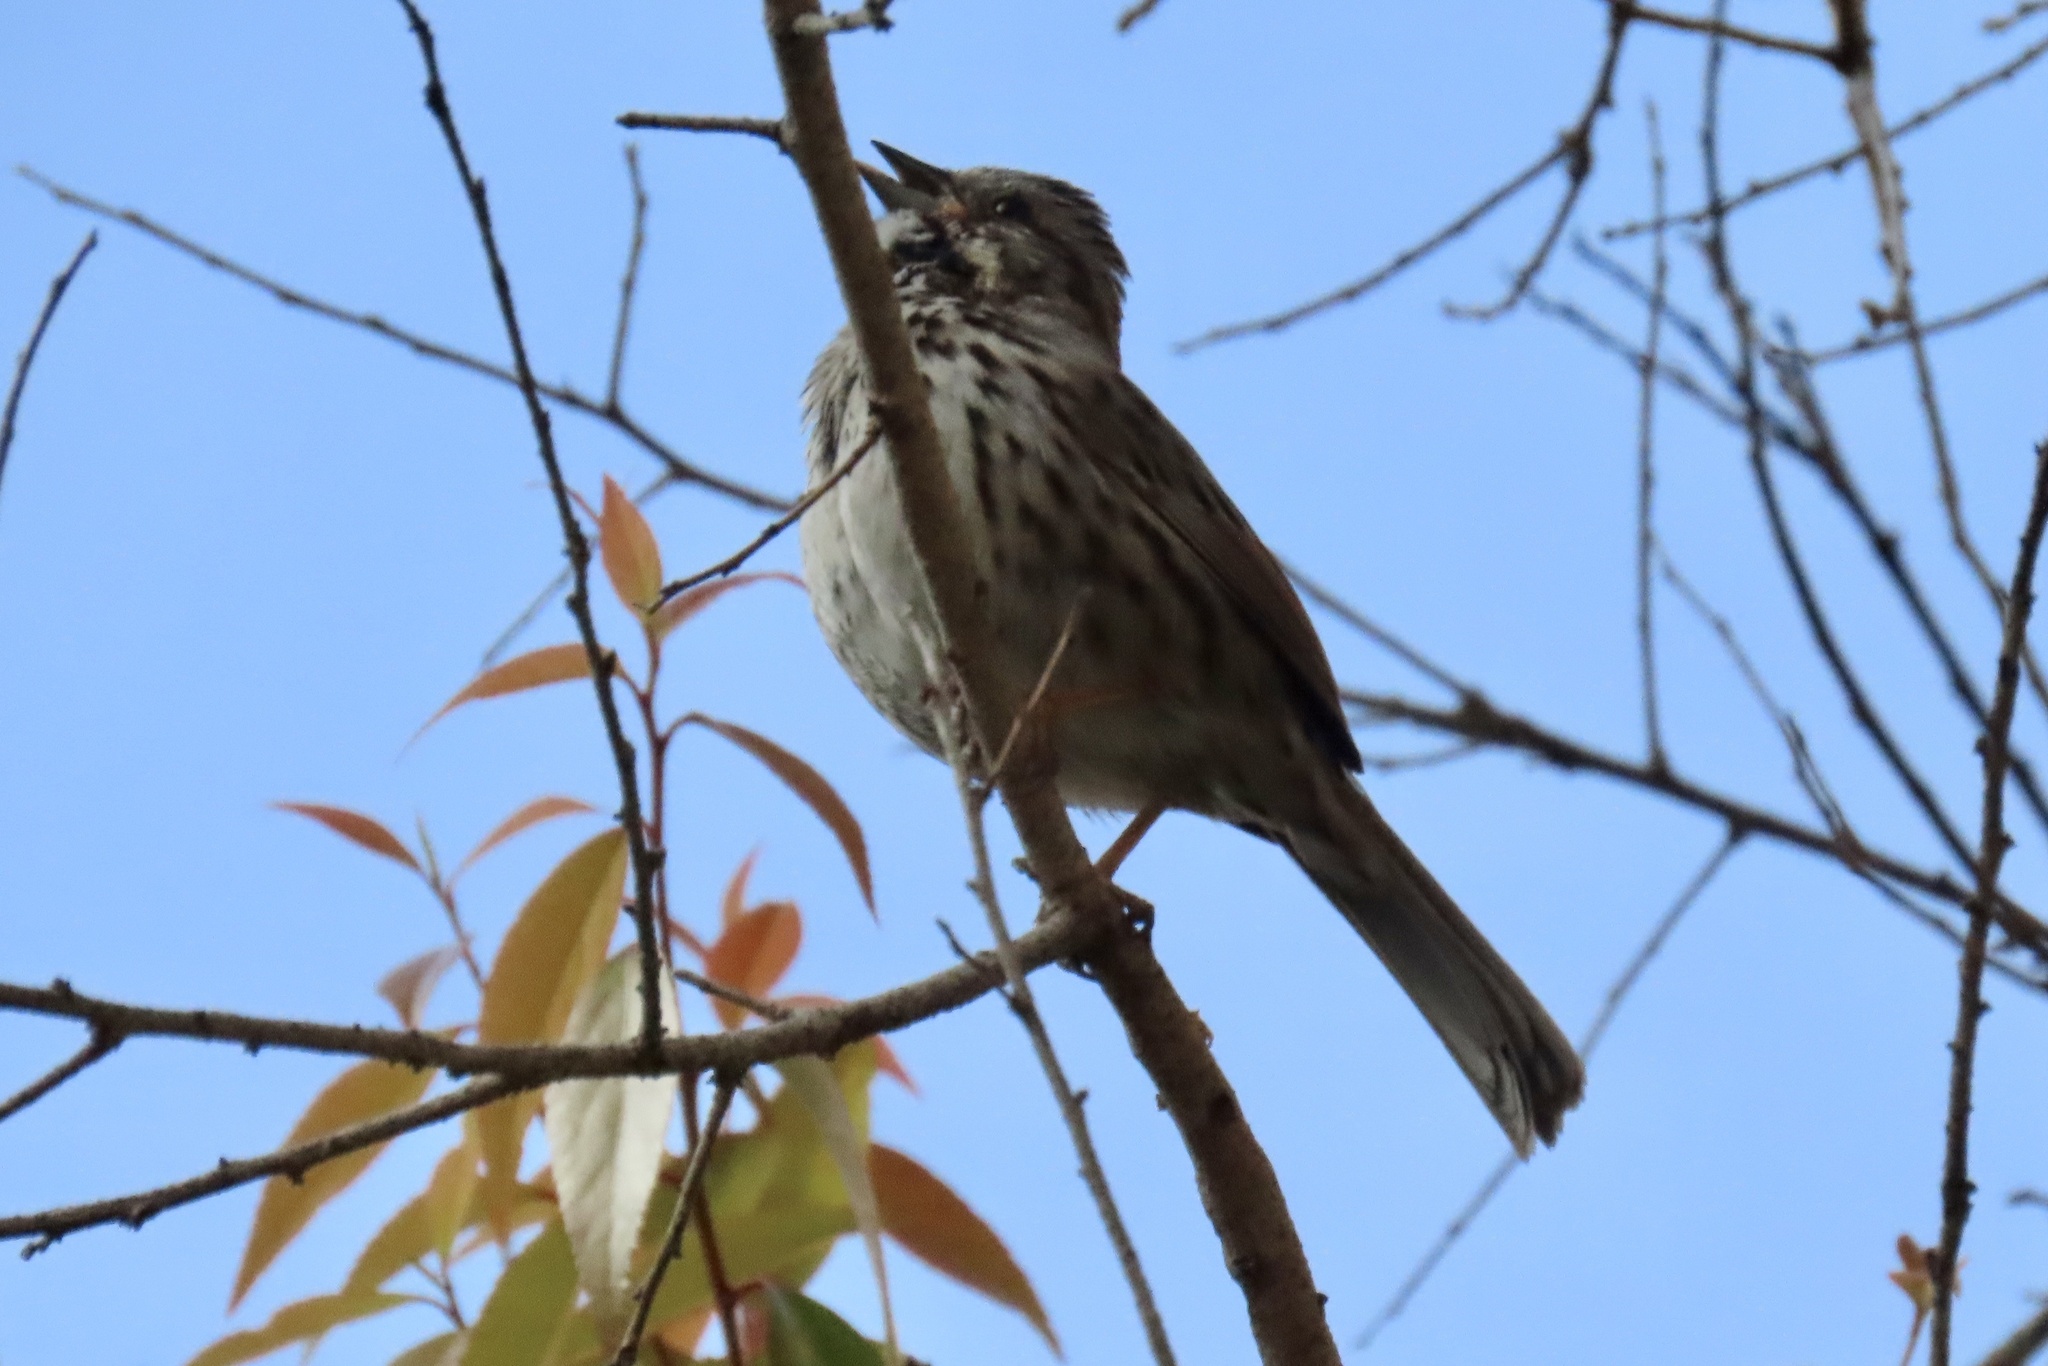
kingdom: Animalia
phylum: Chordata
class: Aves
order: Passeriformes
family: Passerellidae
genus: Melospiza
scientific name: Melospiza melodia
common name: Song sparrow
